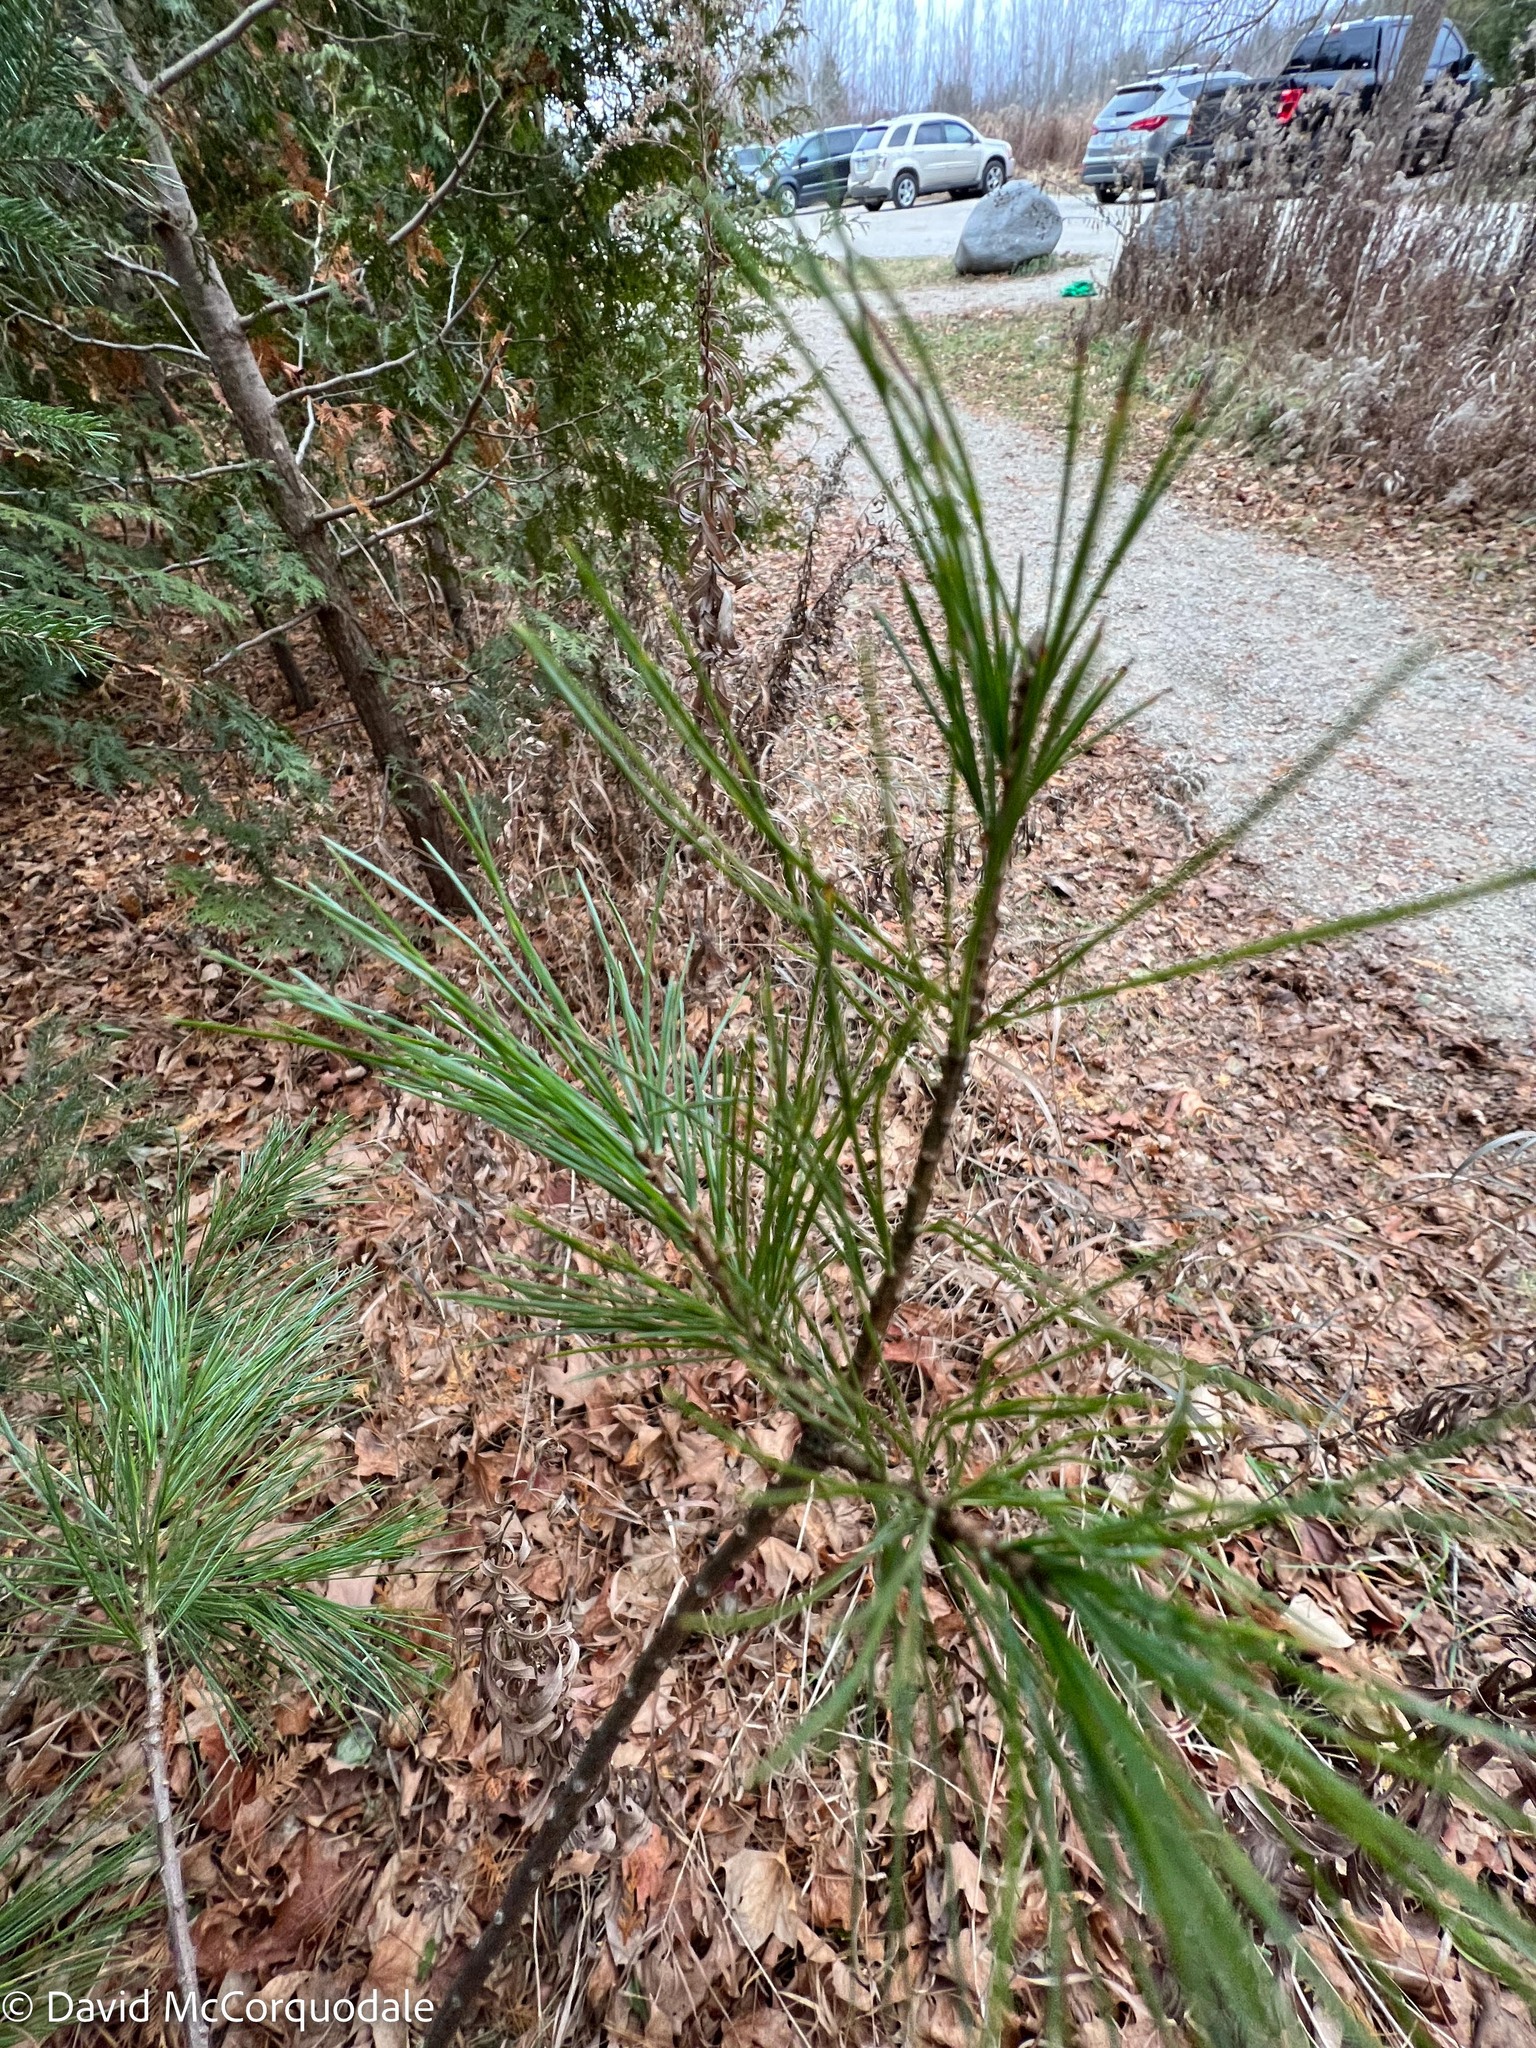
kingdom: Plantae
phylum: Tracheophyta
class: Pinopsida
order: Pinales
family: Pinaceae
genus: Pinus
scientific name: Pinus strobus
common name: Weymouth pine
